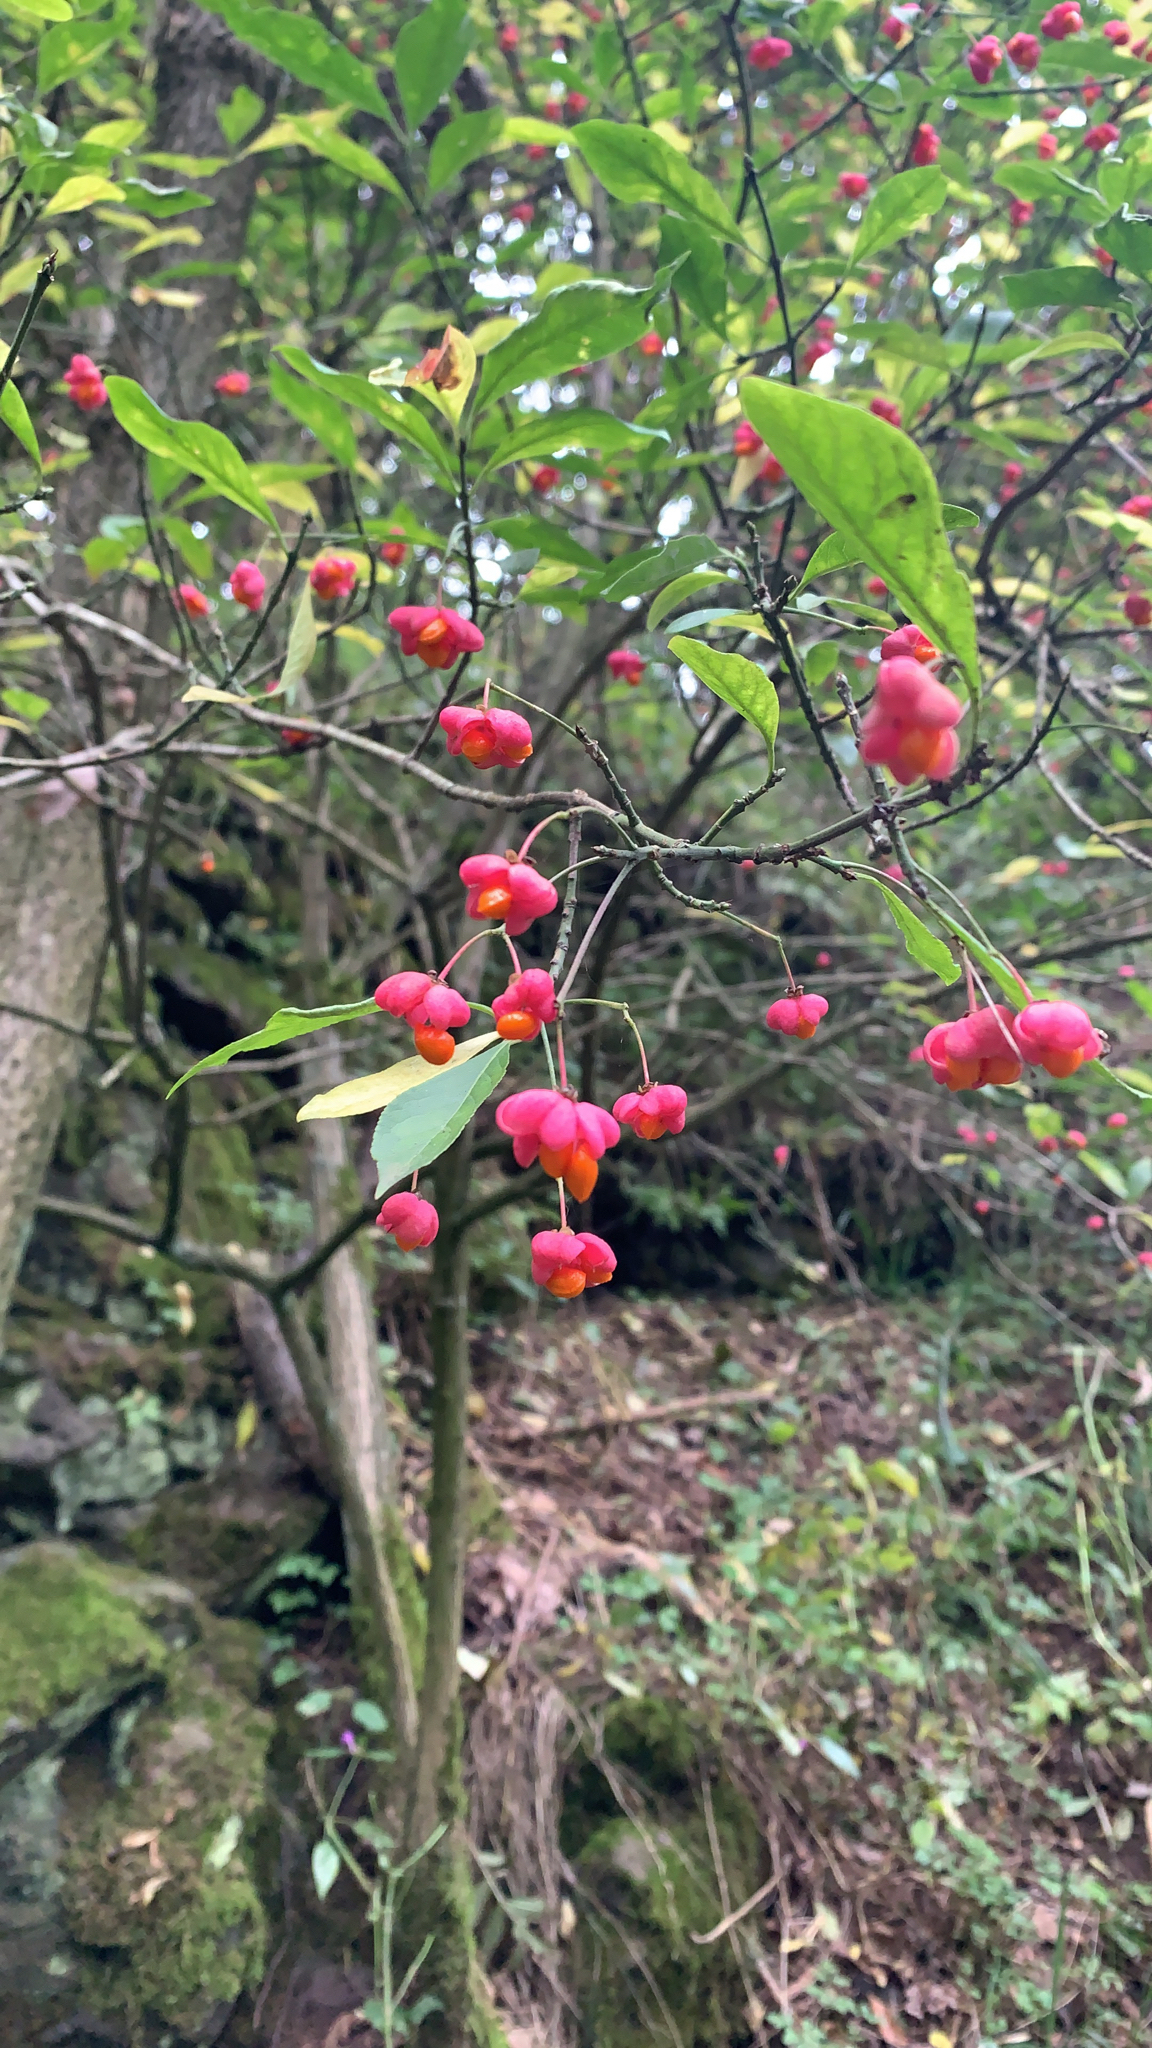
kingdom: Plantae
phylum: Tracheophyta
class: Magnoliopsida
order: Celastrales
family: Celastraceae
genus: Euonymus
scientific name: Euonymus europaeus
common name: Spindle
